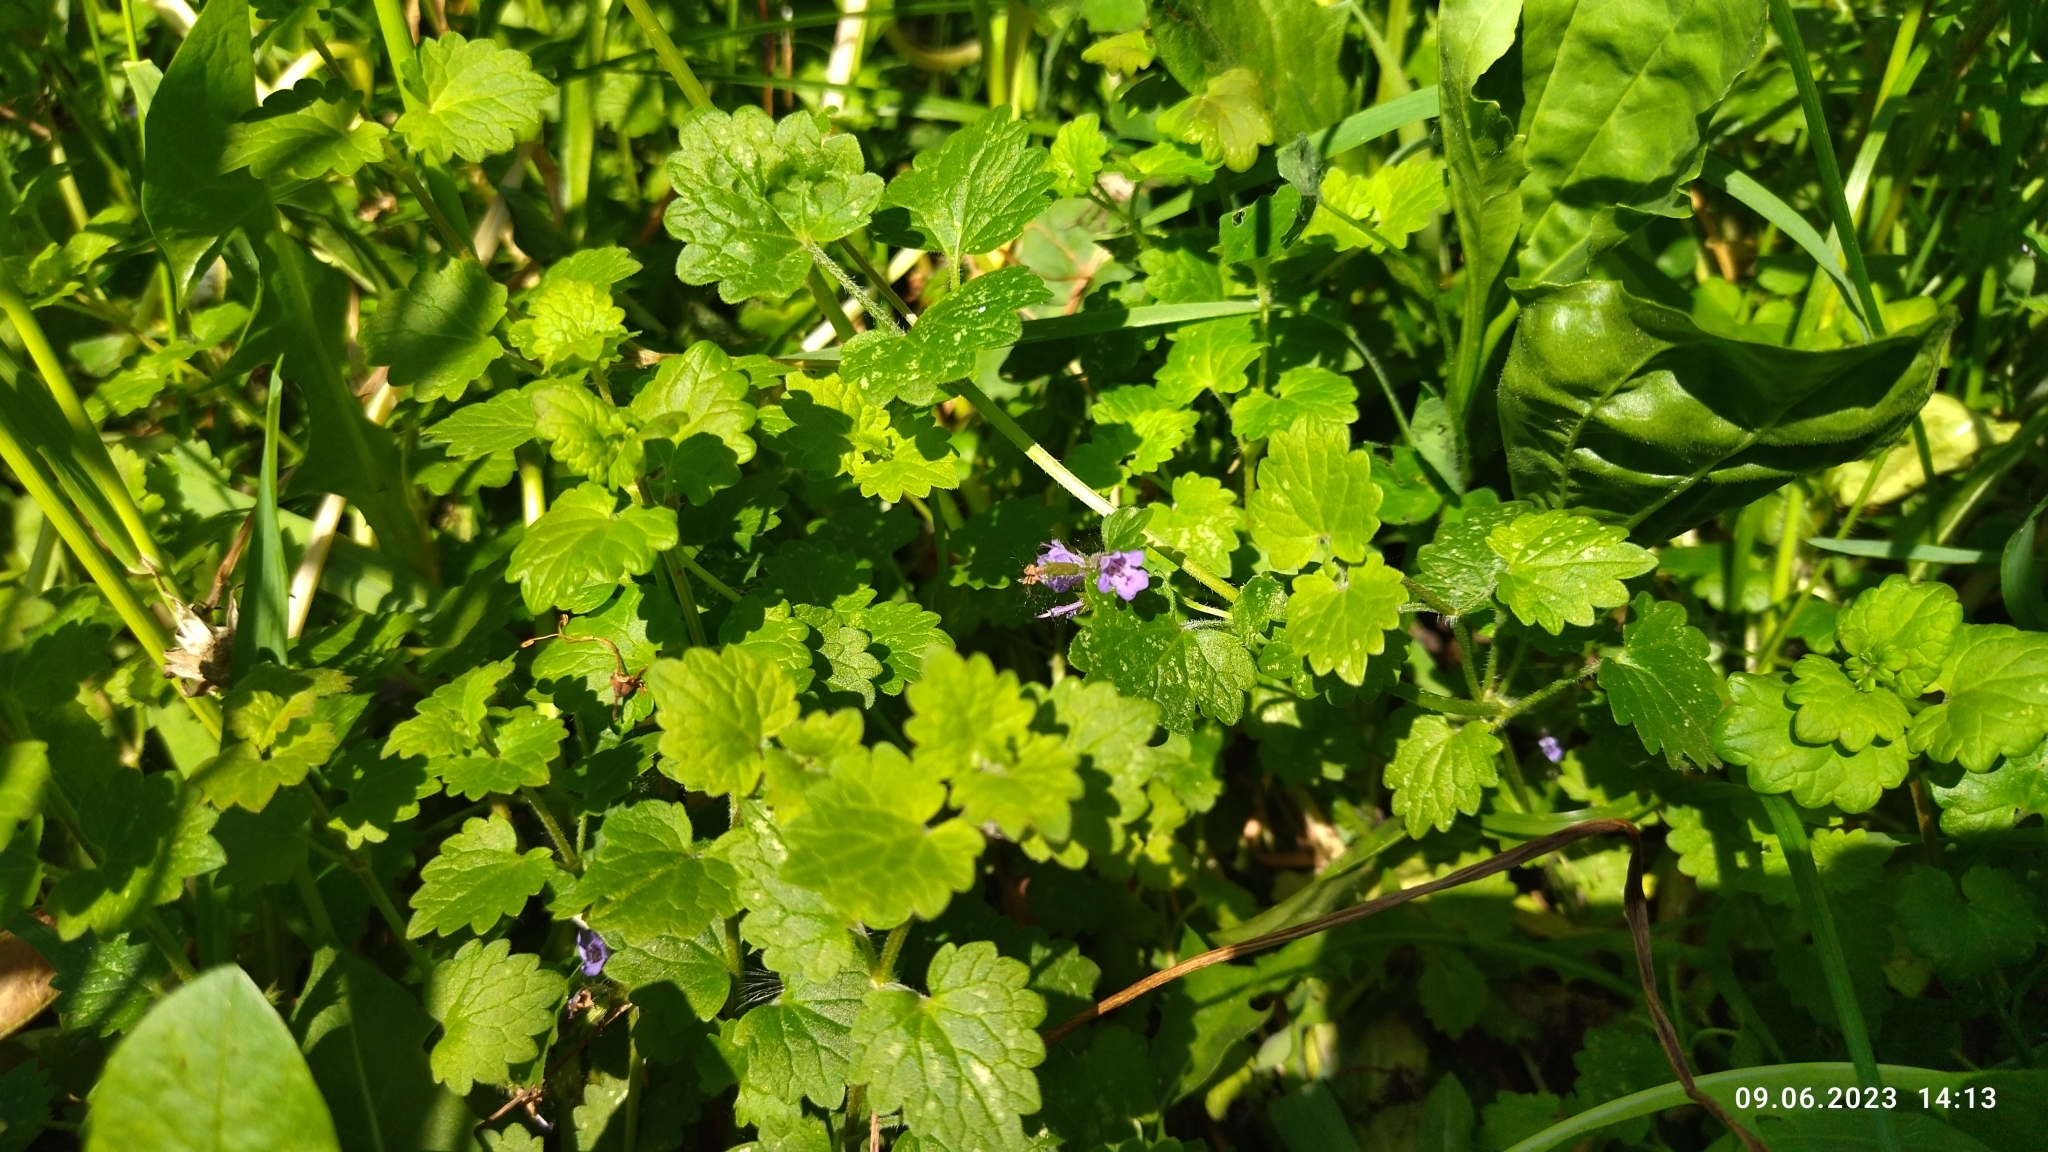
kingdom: Plantae
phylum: Tracheophyta
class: Magnoliopsida
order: Lamiales
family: Lamiaceae
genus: Glechoma
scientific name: Glechoma hederacea
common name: Ground ivy
